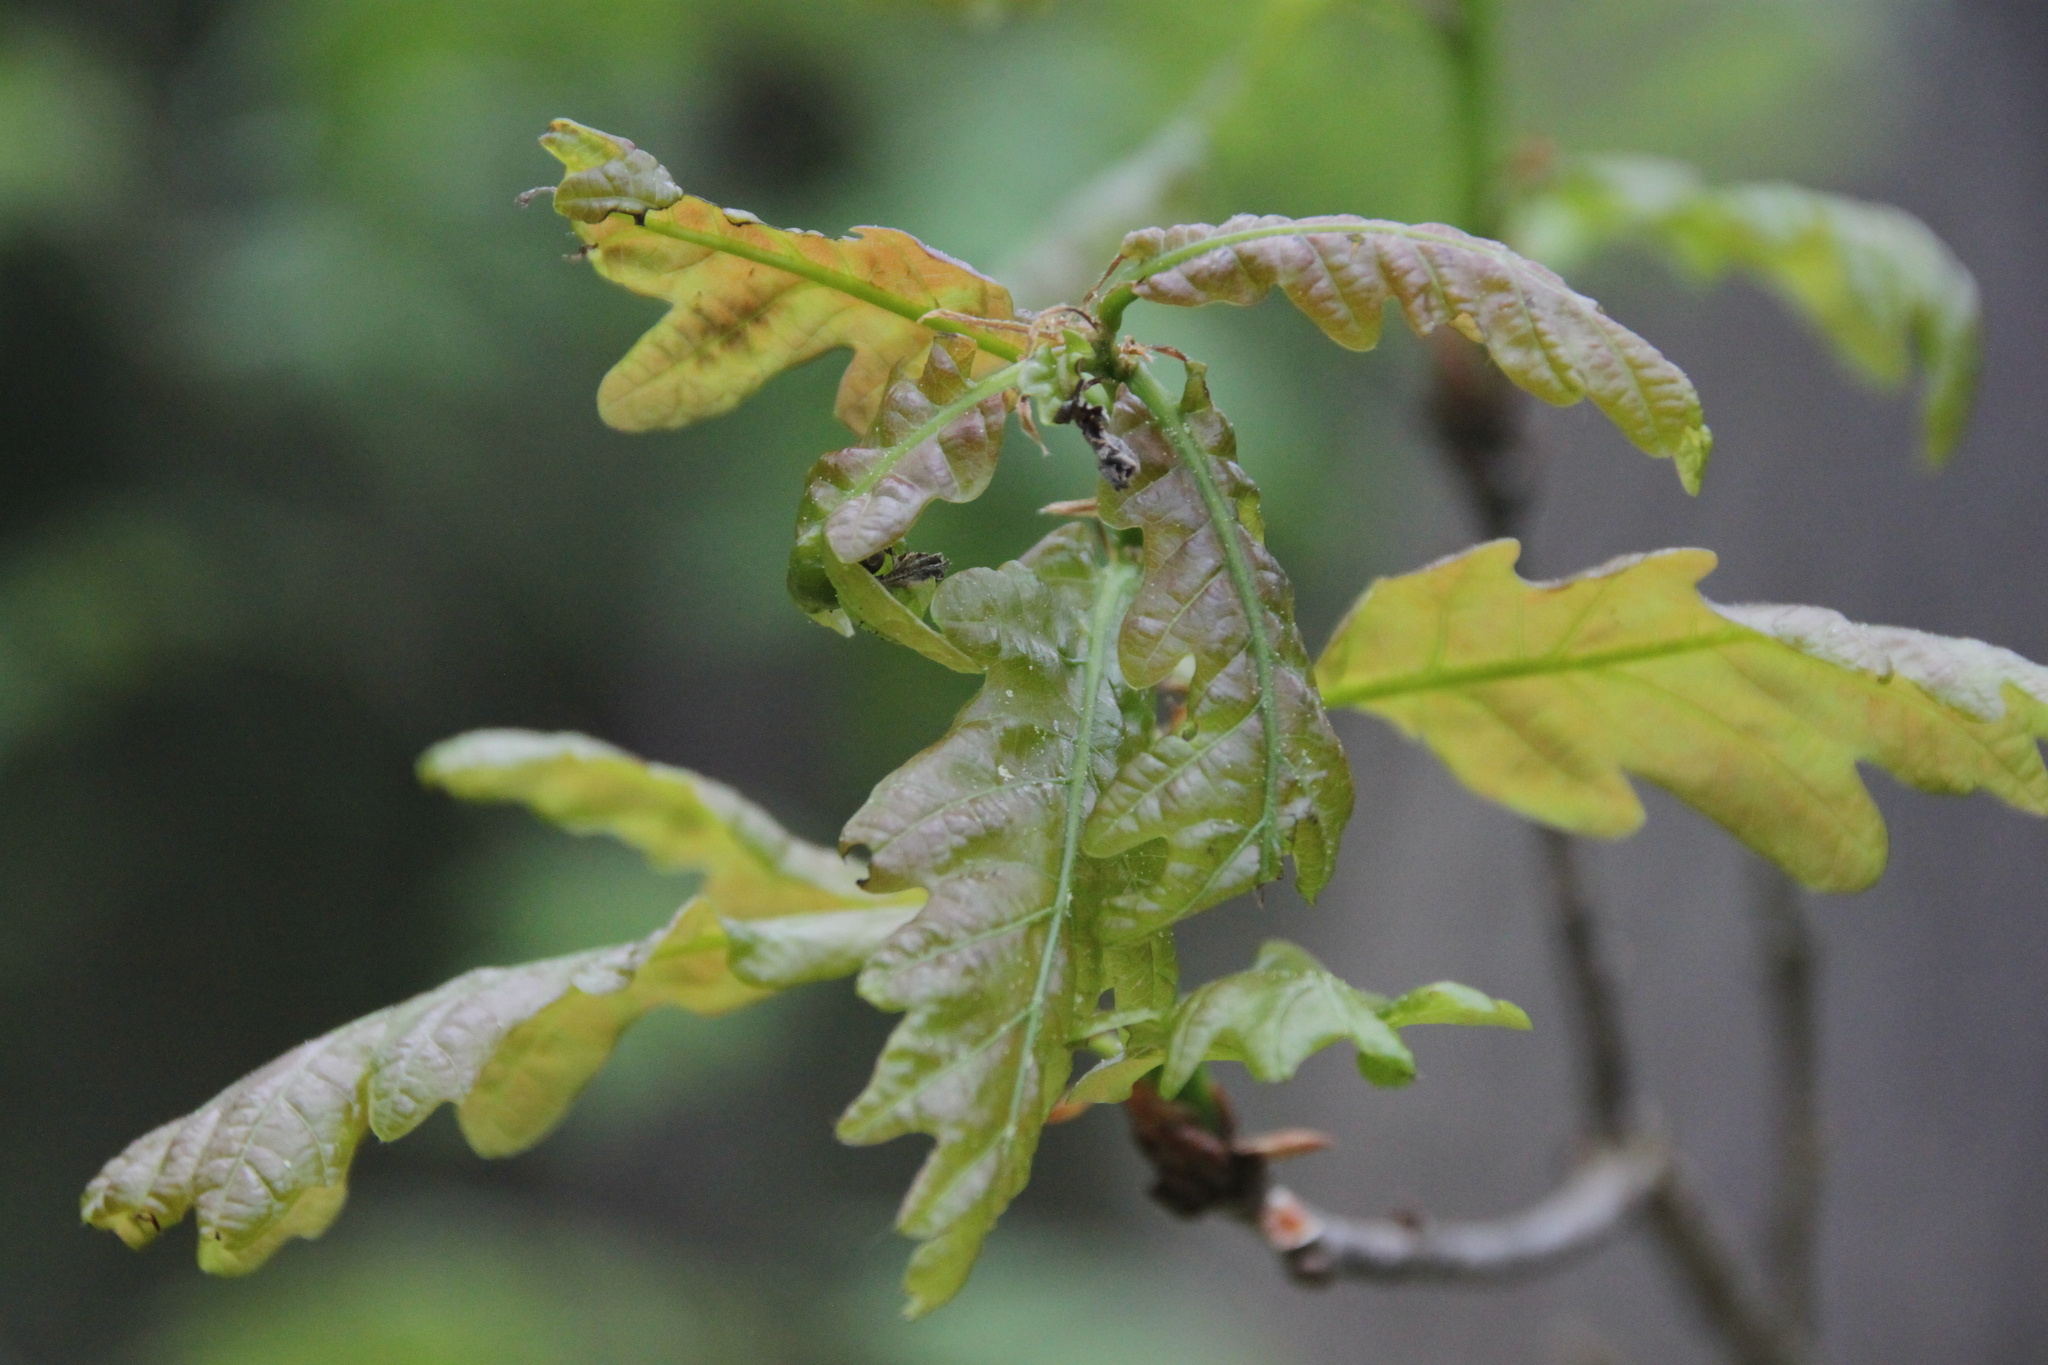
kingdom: Plantae
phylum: Tracheophyta
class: Magnoliopsida
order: Fagales
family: Fagaceae
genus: Quercus
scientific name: Quercus robur
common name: Pedunculate oak
